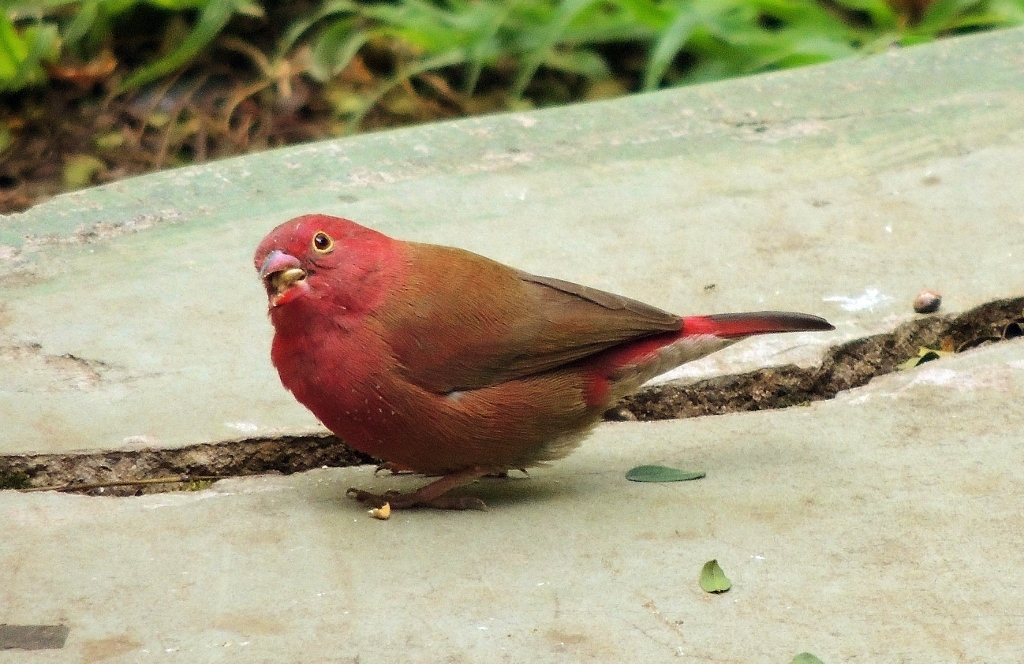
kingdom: Animalia
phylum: Chordata
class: Aves
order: Passeriformes
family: Estrildidae
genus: Lagonosticta
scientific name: Lagonosticta senegala
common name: Red-billed firefinch
